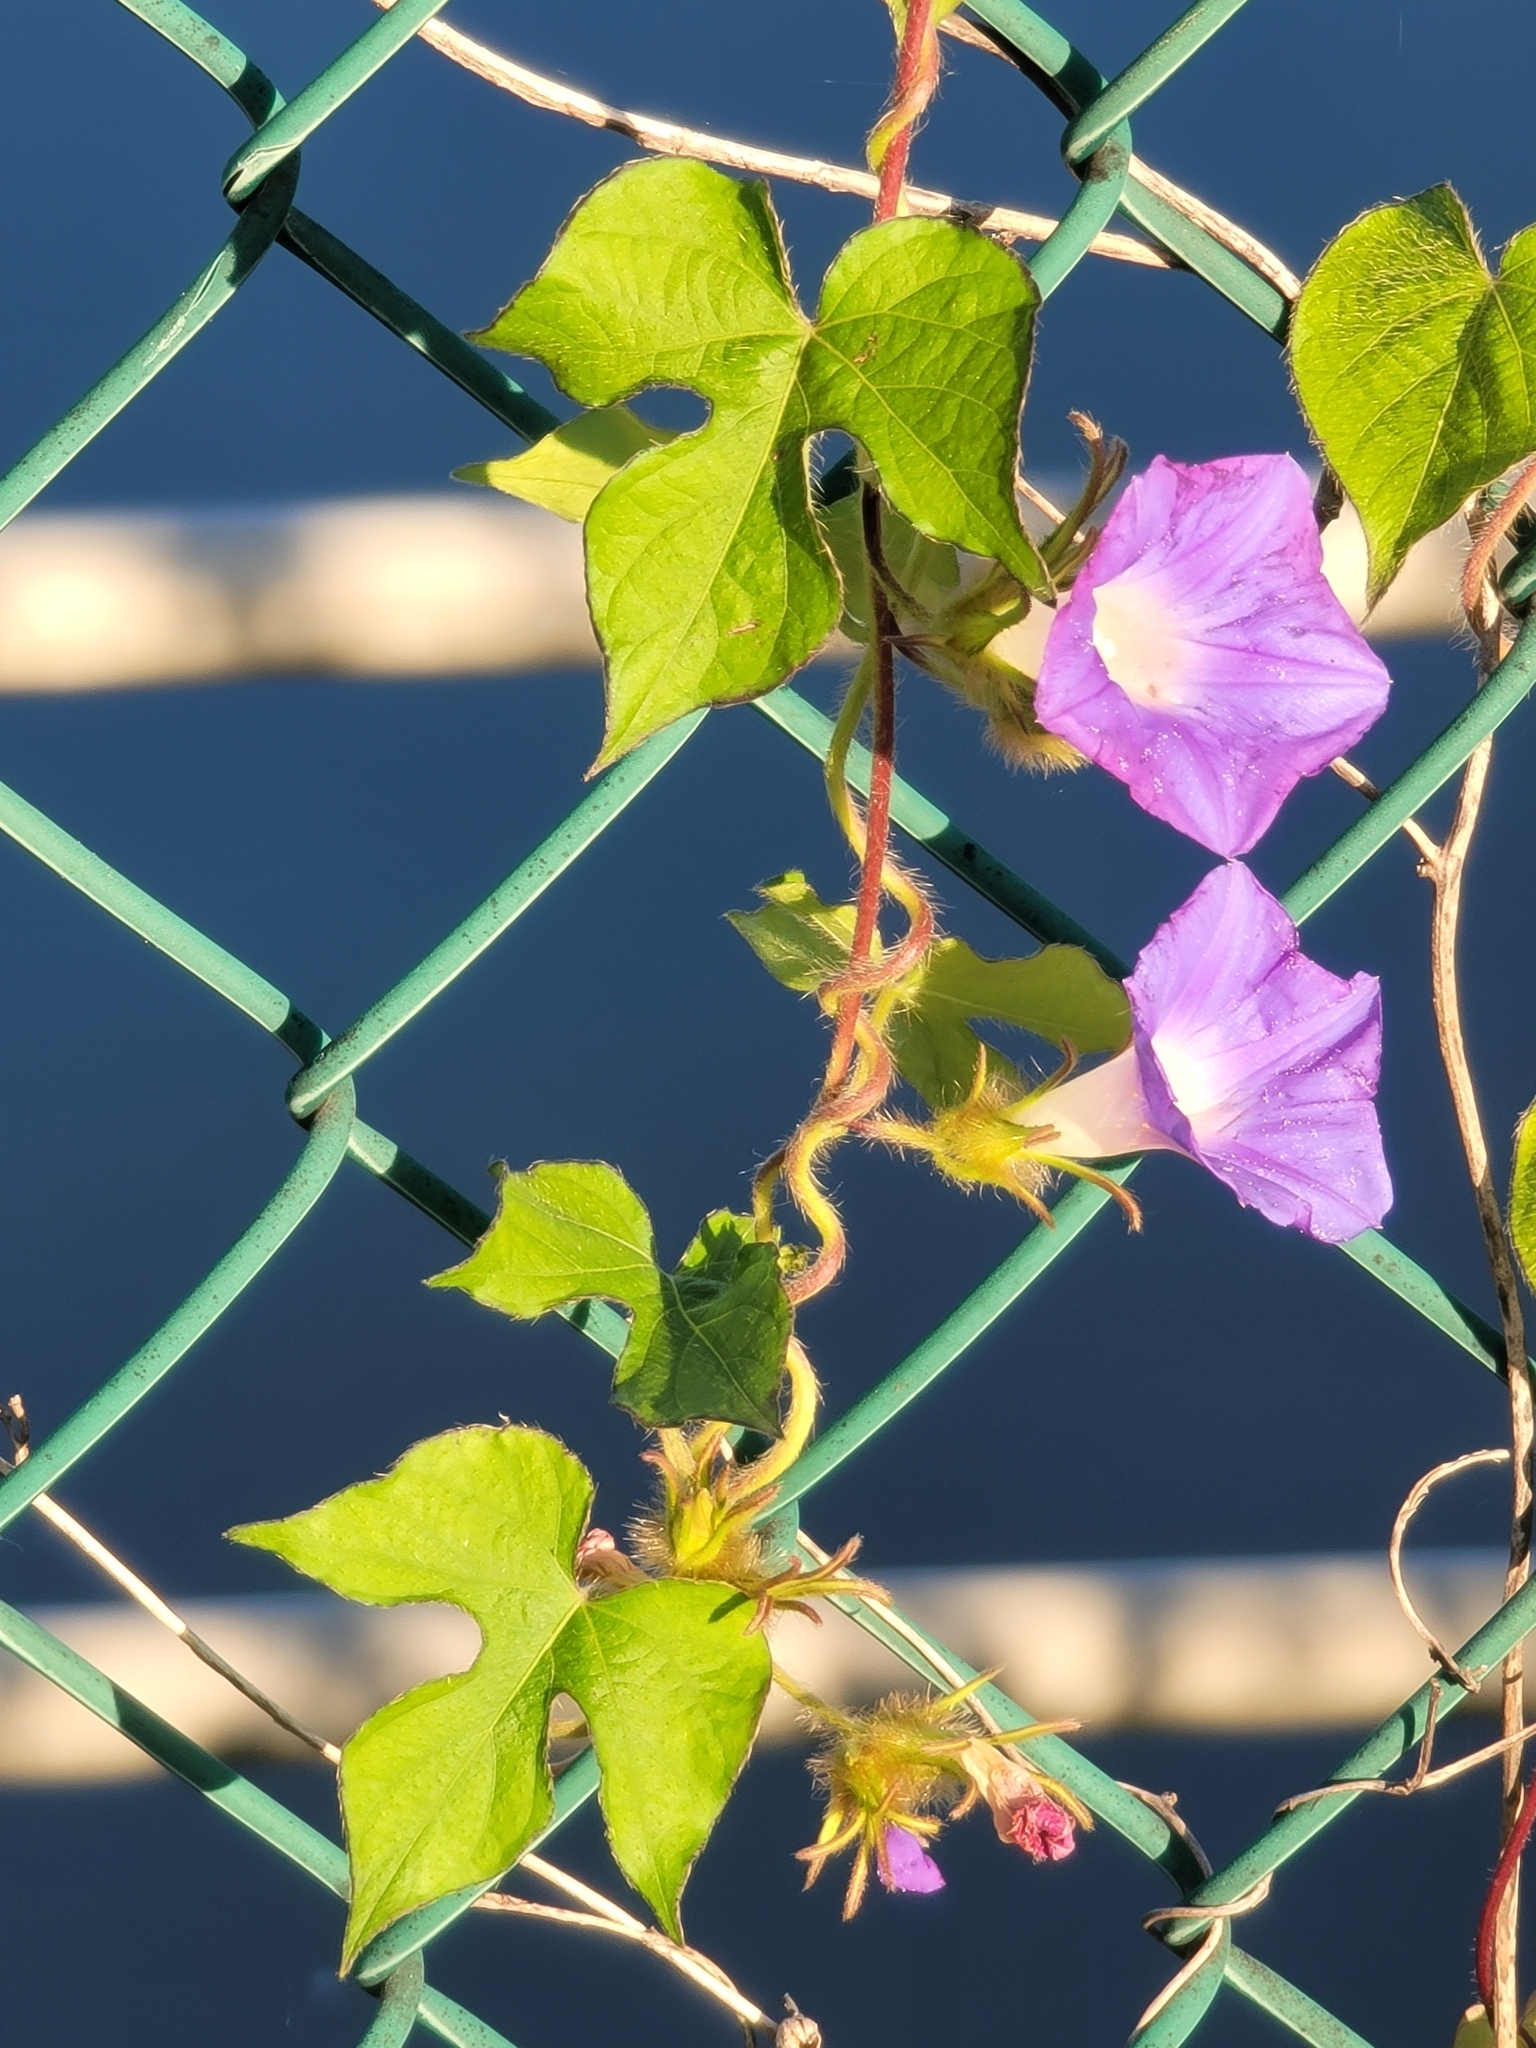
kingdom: Plantae
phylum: Tracheophyta
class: Magnoliopsida
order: Solanales
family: Convolvulaceae
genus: Ipomoea
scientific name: Ipomoea hederacea
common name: Ivy-leaved morning-glory
